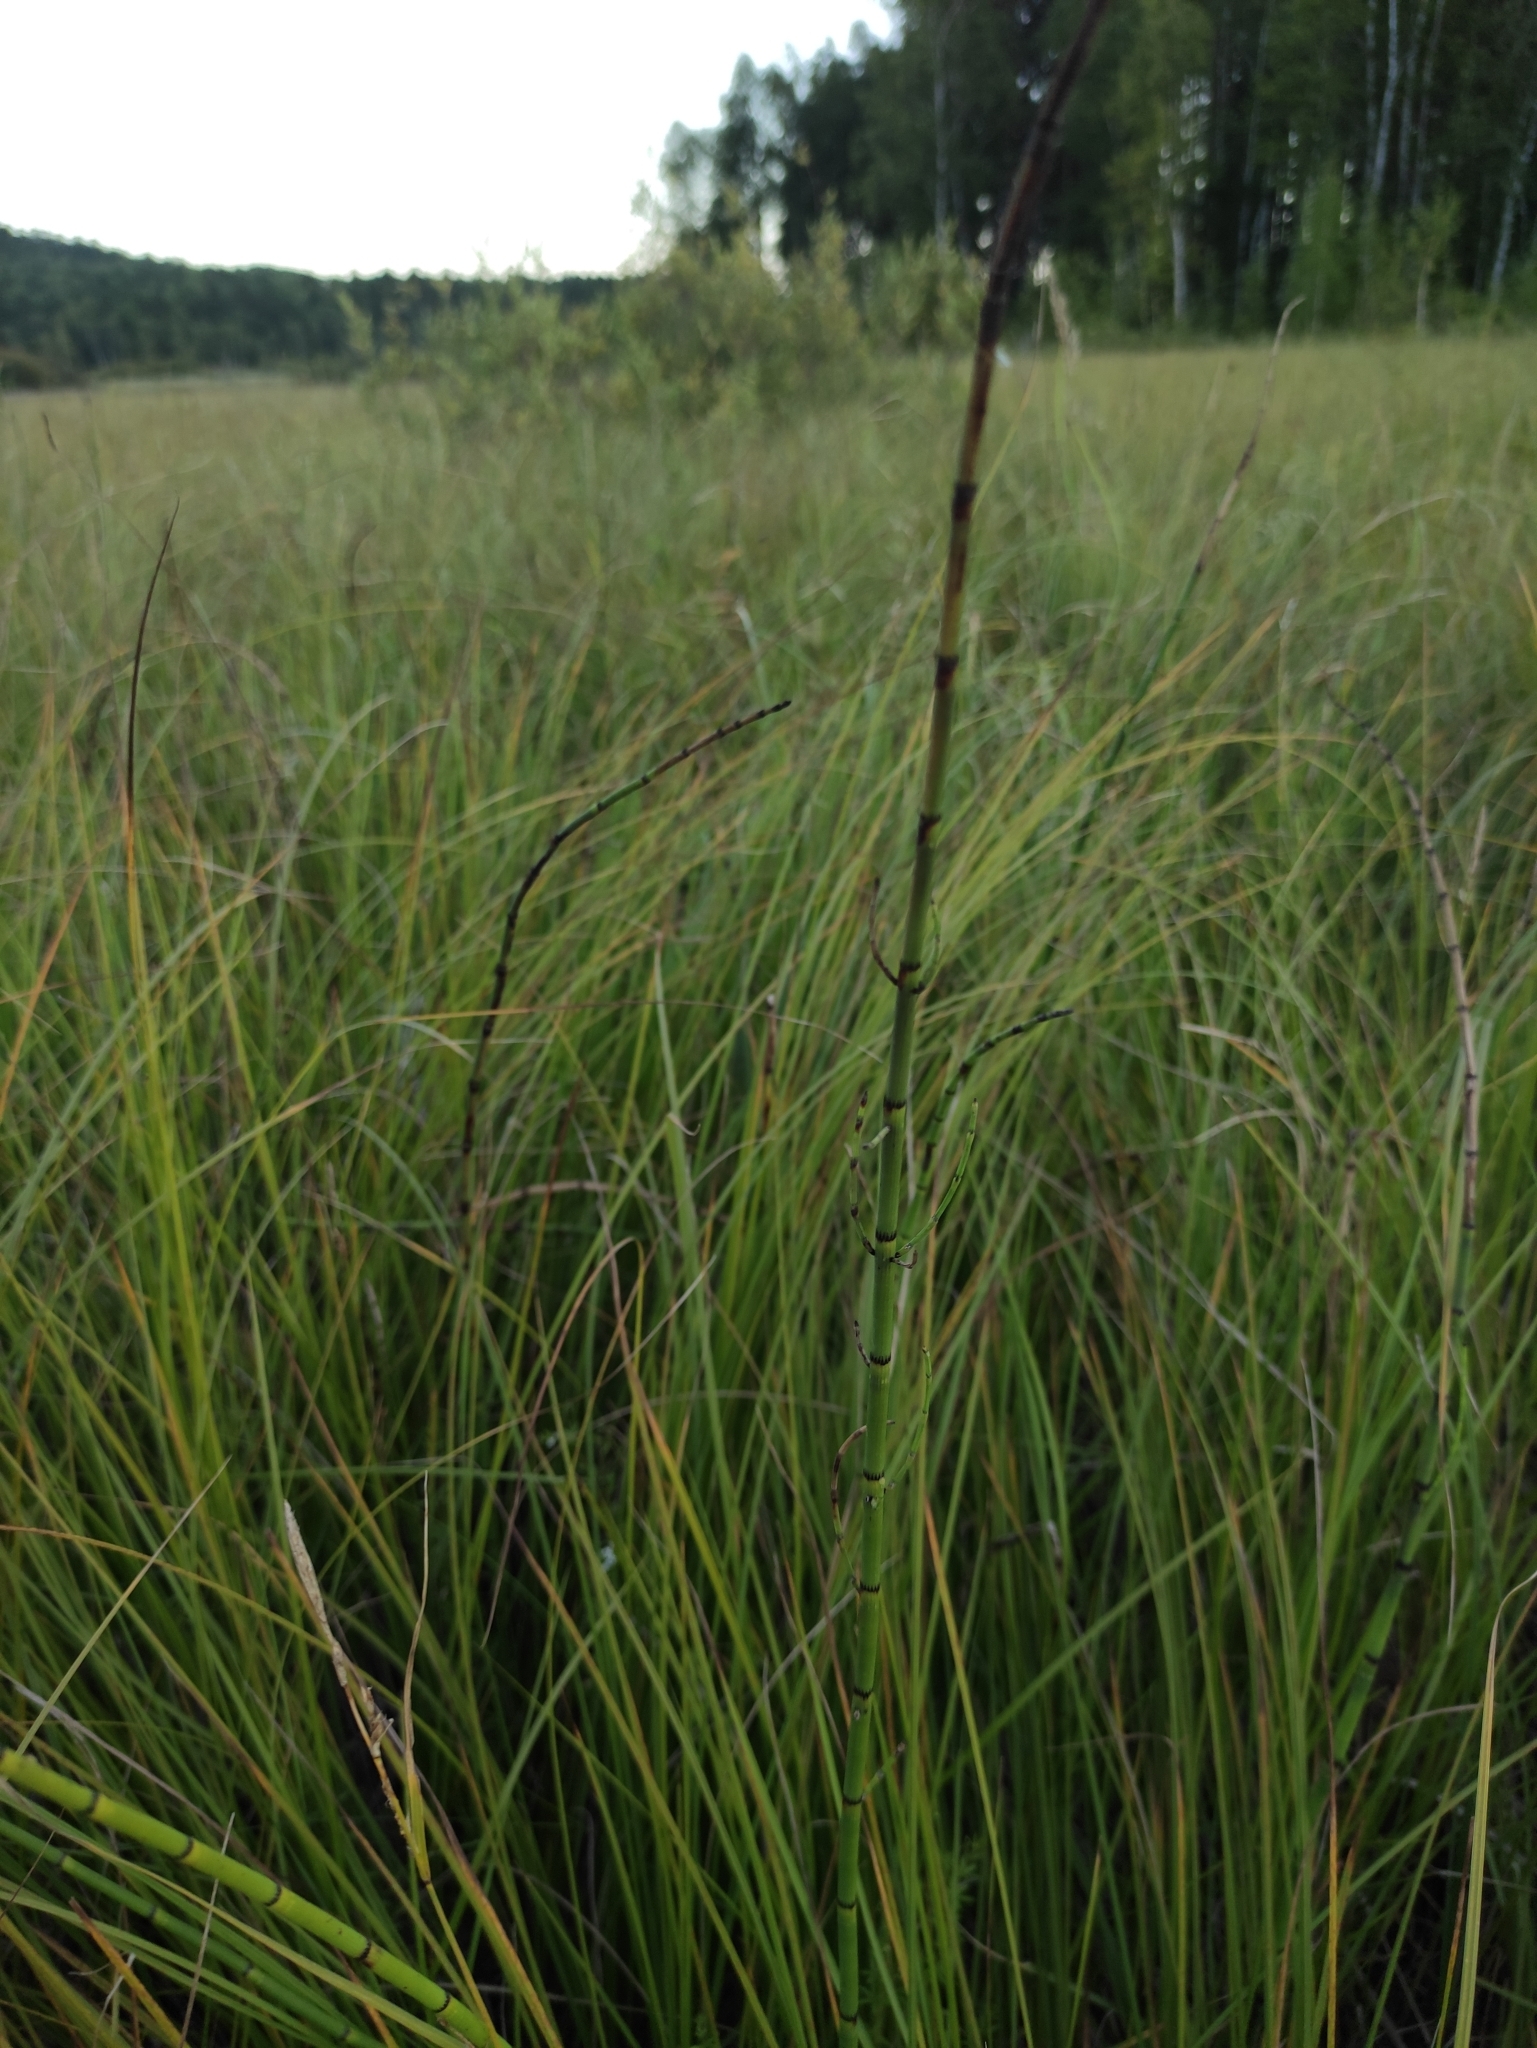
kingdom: Plantae
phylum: Tracheophyta
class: Polypodiopsida
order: Equisetales
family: Equisetaceae
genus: Equisetum
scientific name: Equisetum fluviatile
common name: Water horsetail
